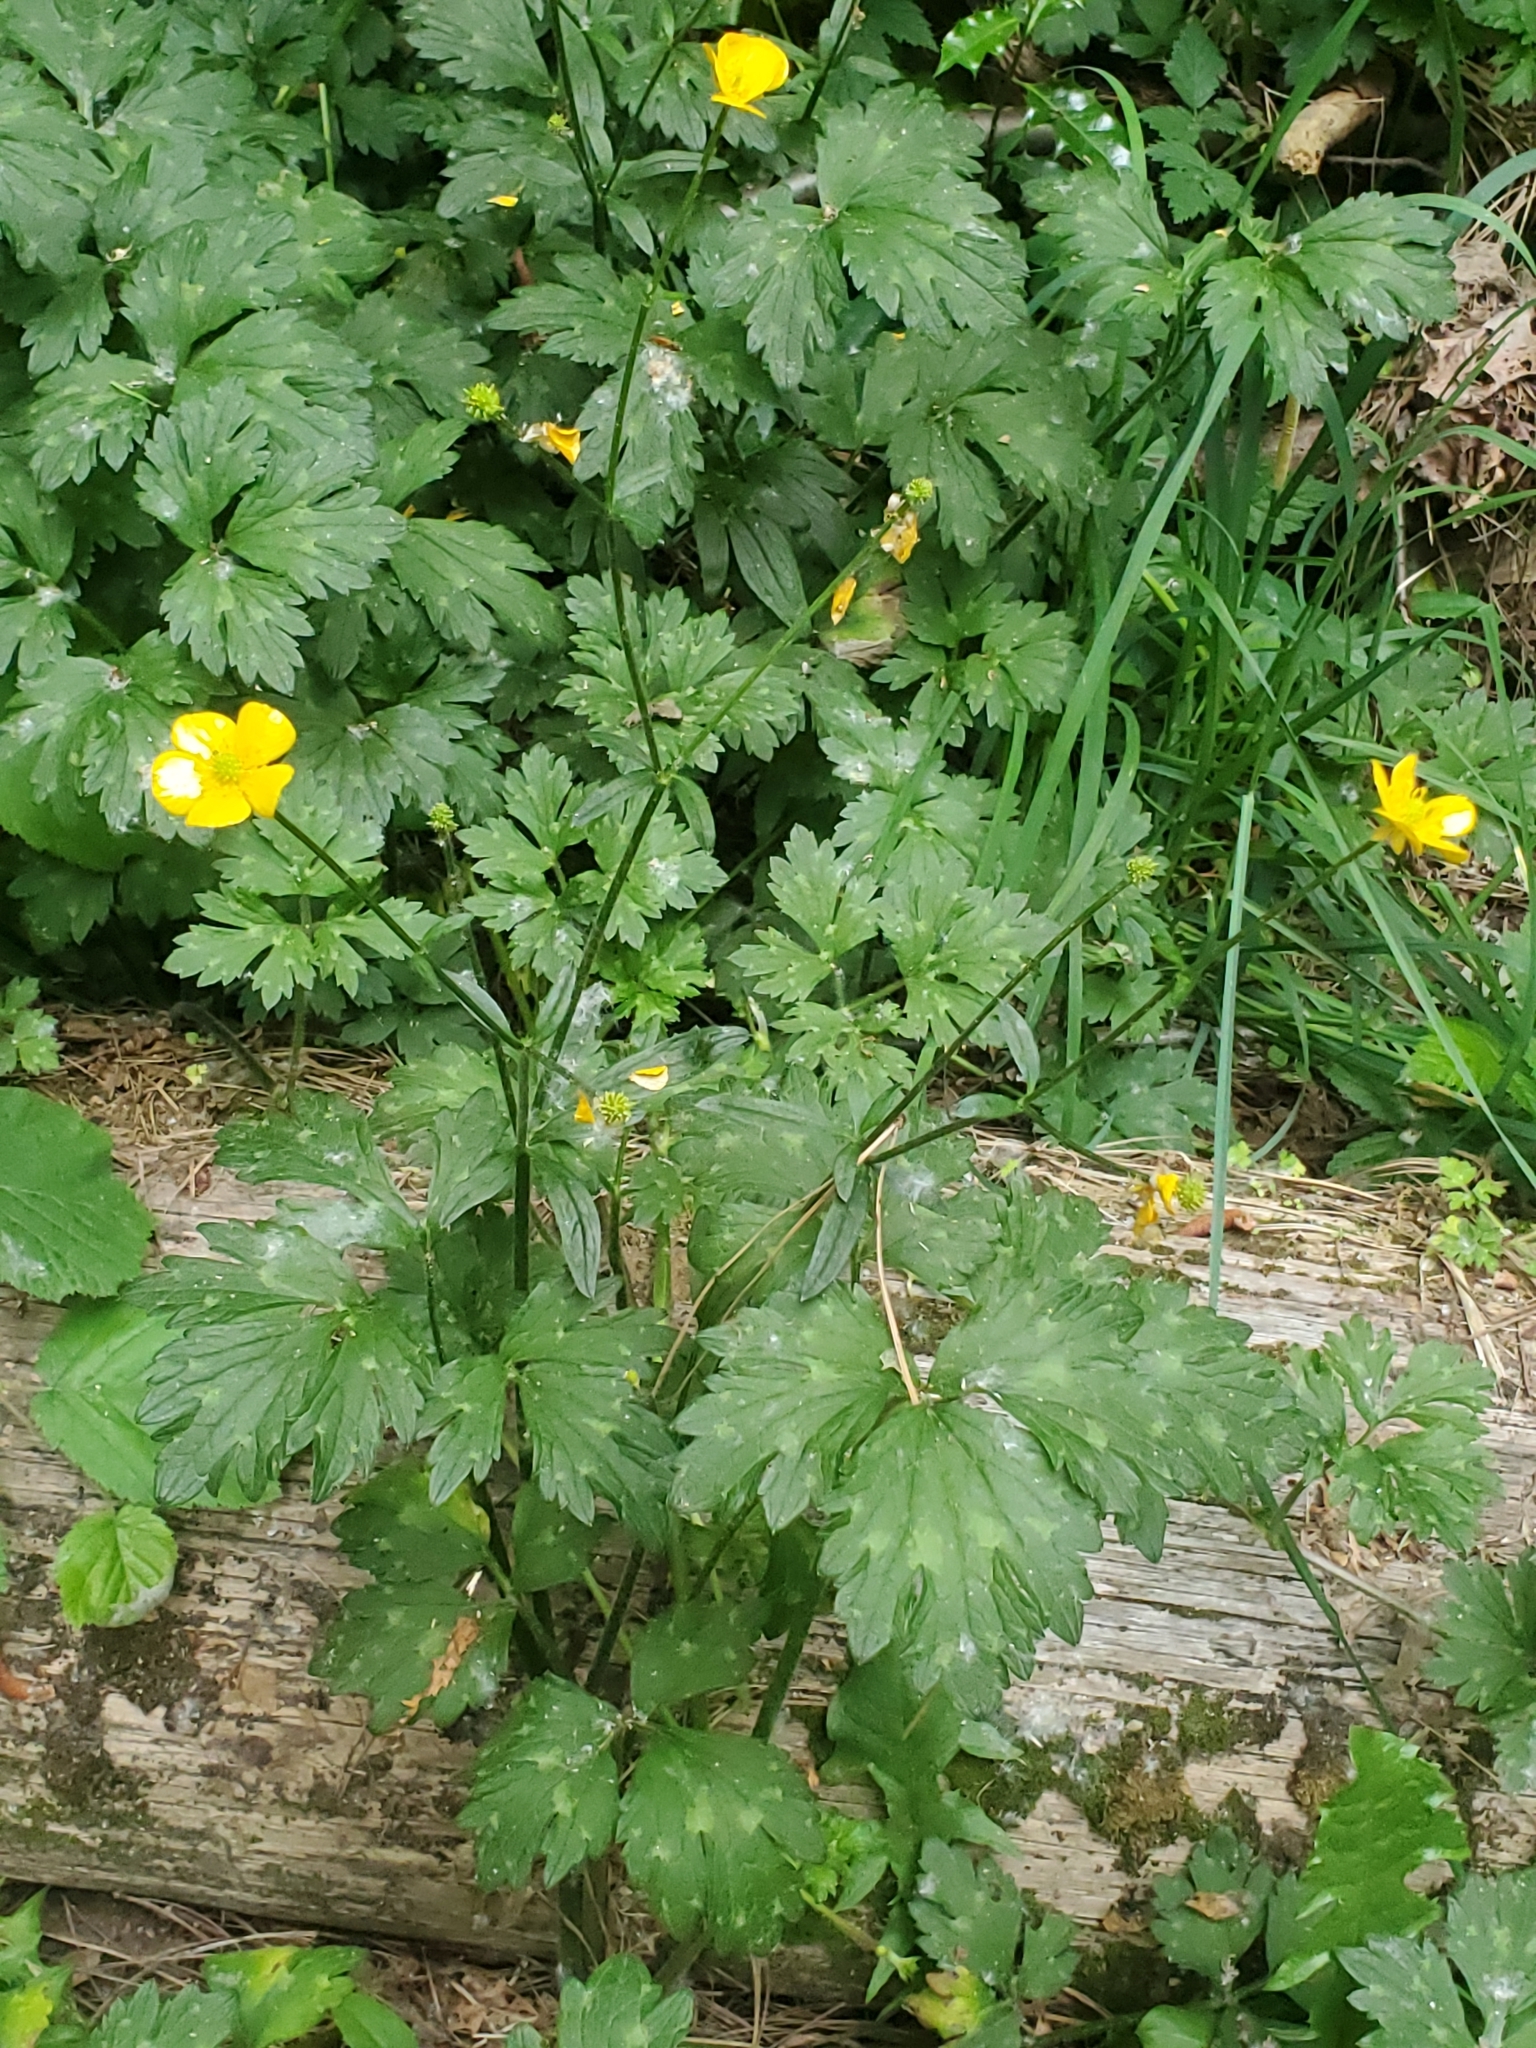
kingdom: Plantae
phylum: Tracheophyta
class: Magnoliopsida
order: Ranunculales
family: Ranunculaceae
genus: Ranunculus
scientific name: Ranunculus repens
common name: Creeping buttercup
